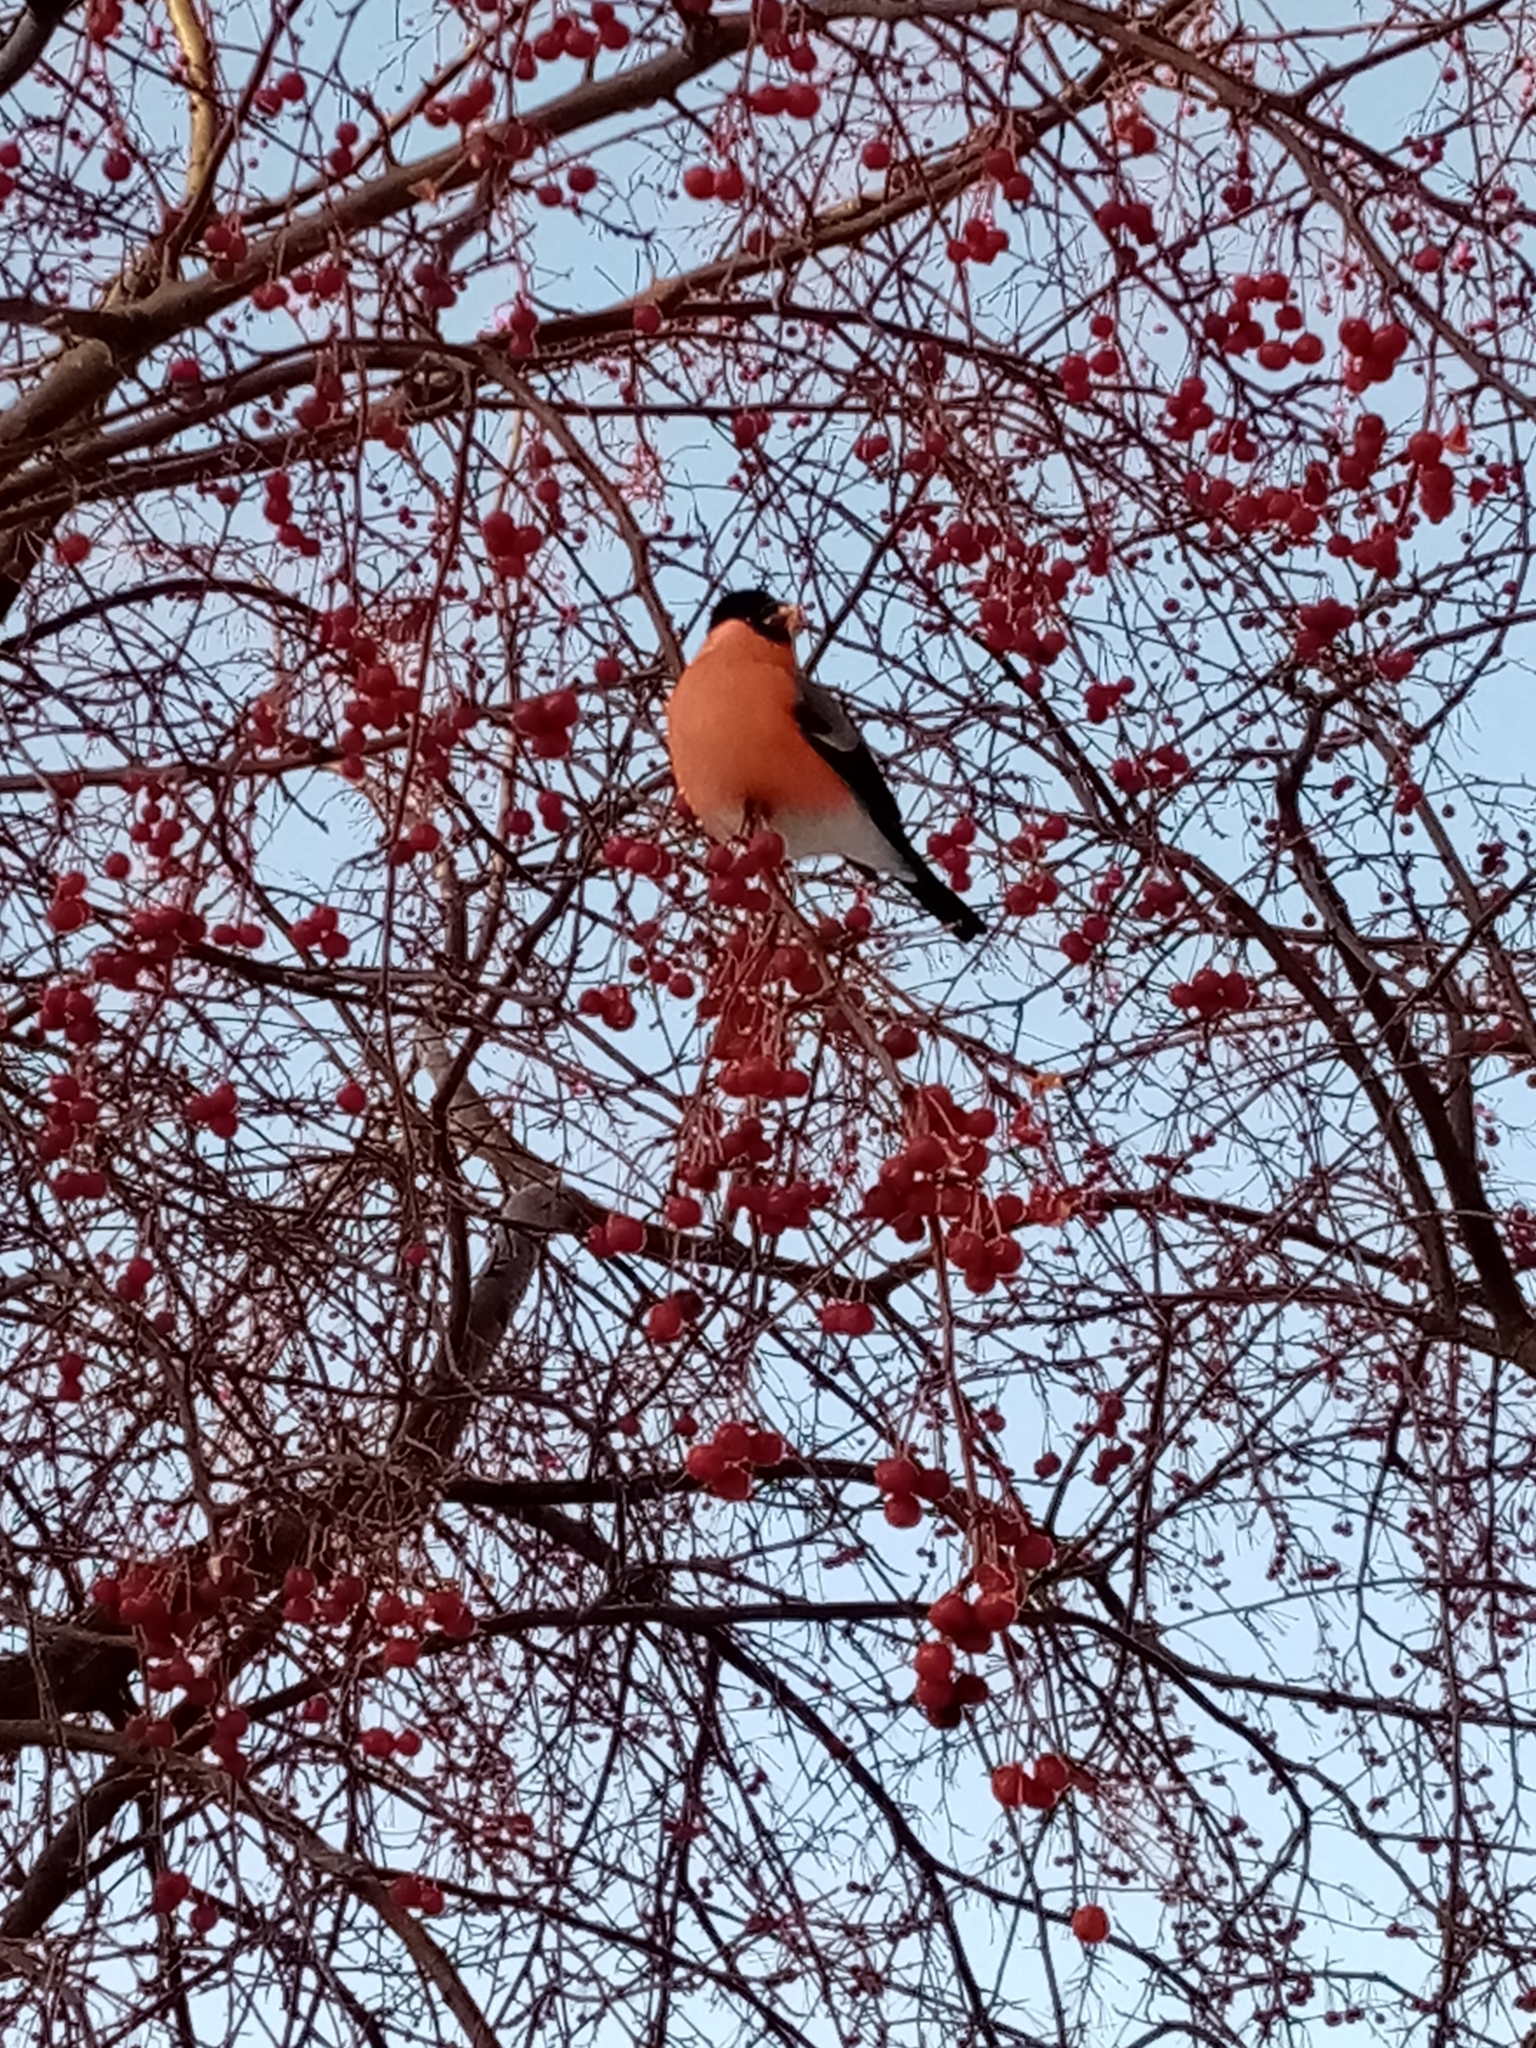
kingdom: Animalia
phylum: Chordata
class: Aves
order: Passeriformes
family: Fringillidae
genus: Pyrrhula
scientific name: Pyrrhula pyrrhula
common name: Eurasian bullfinch
